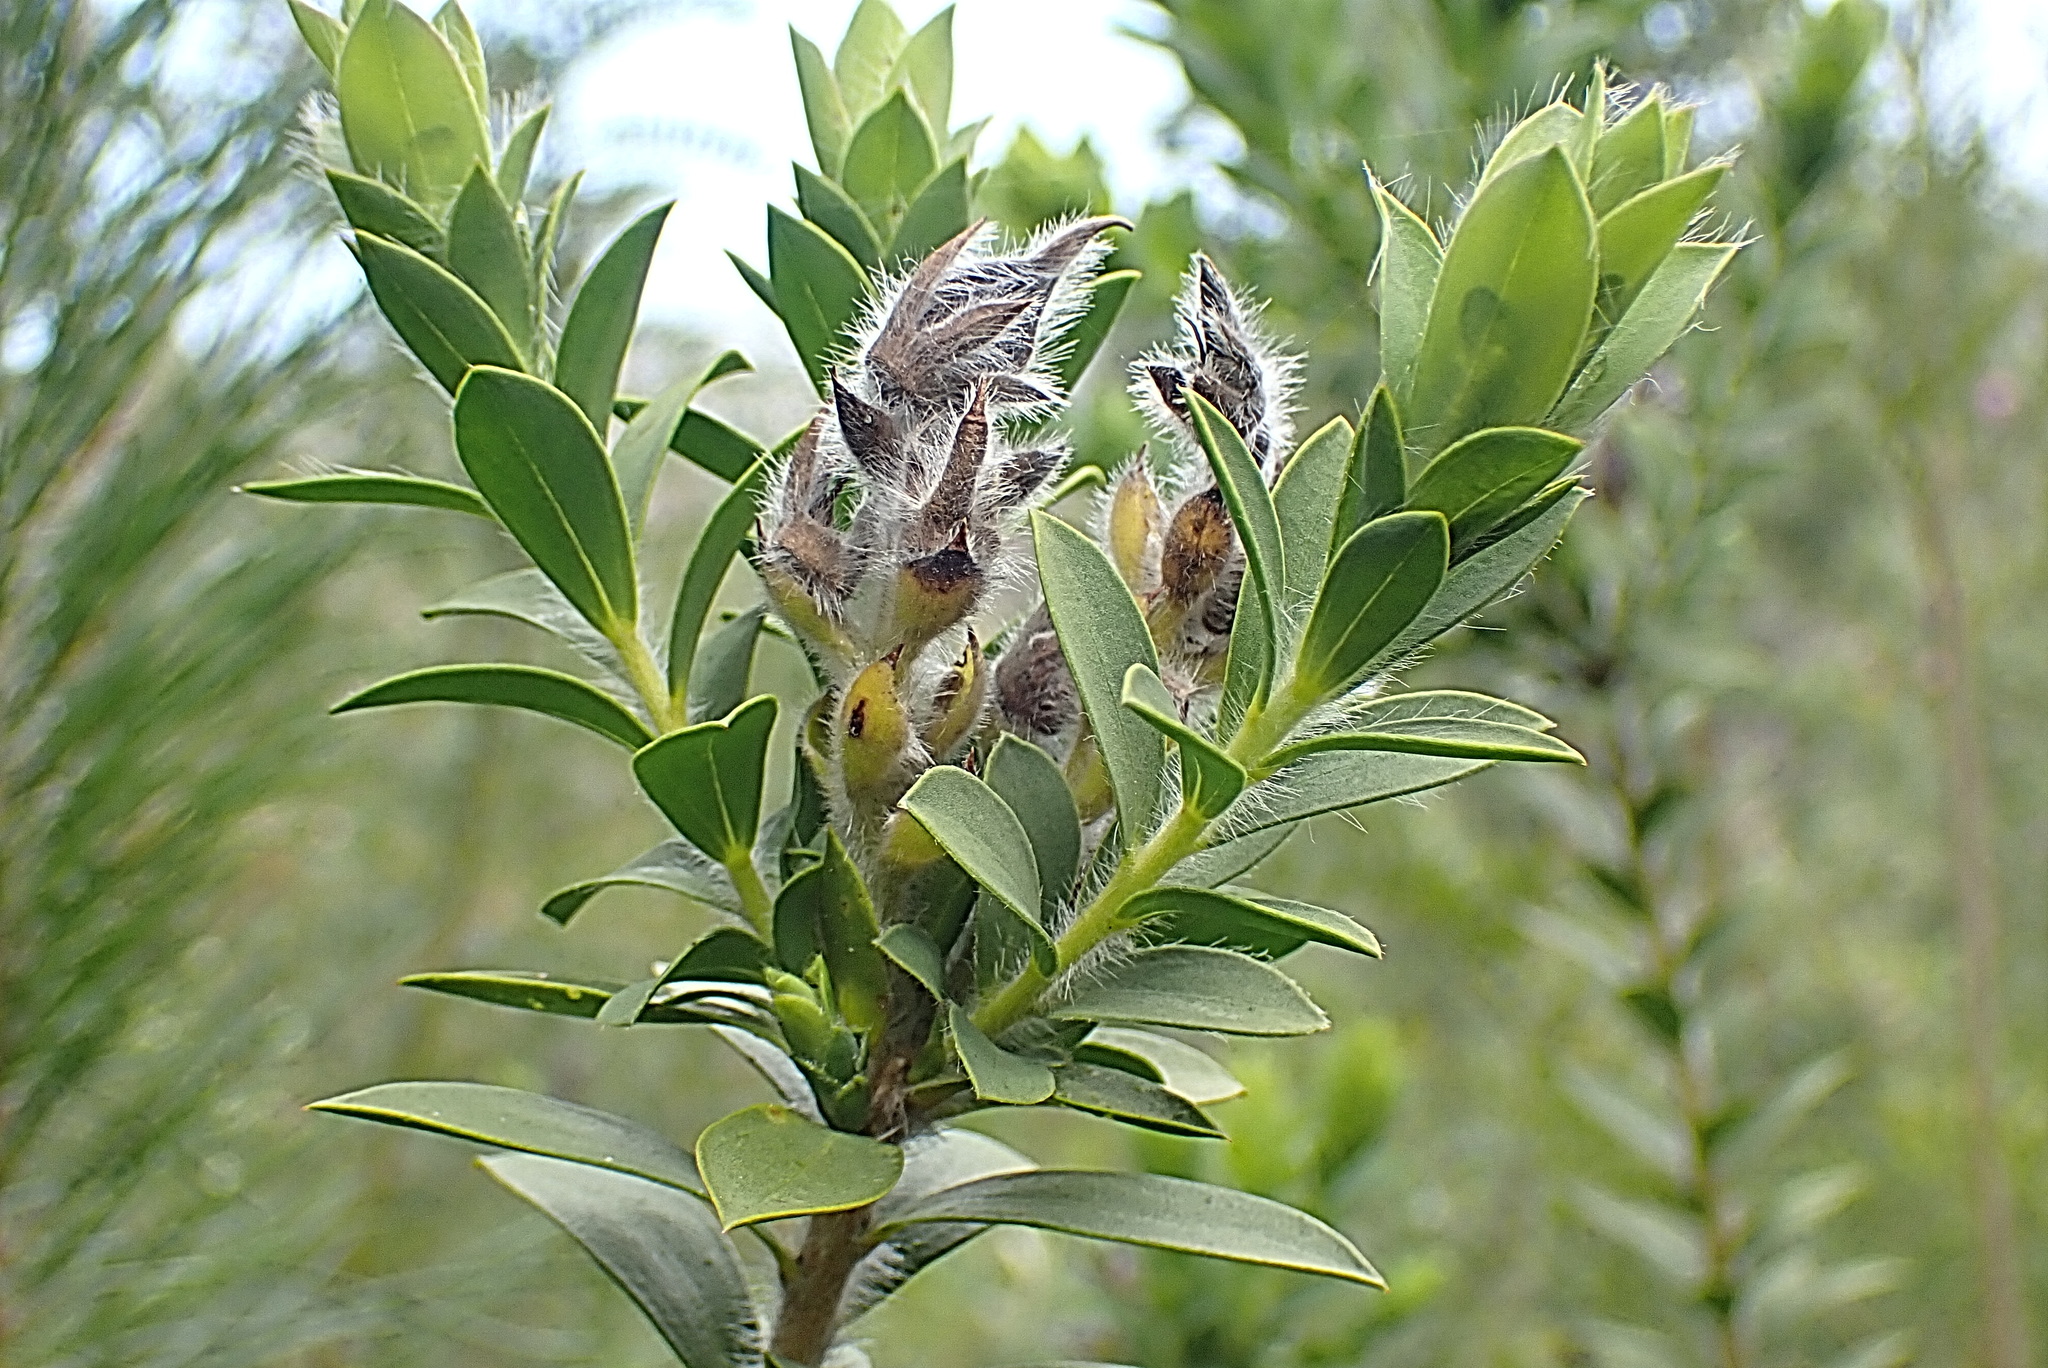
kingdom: Plantae
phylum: Tracheophyta
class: Magnoliopsida
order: Fabales
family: Fabaceae
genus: Liparia
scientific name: Liparia hirsuta
